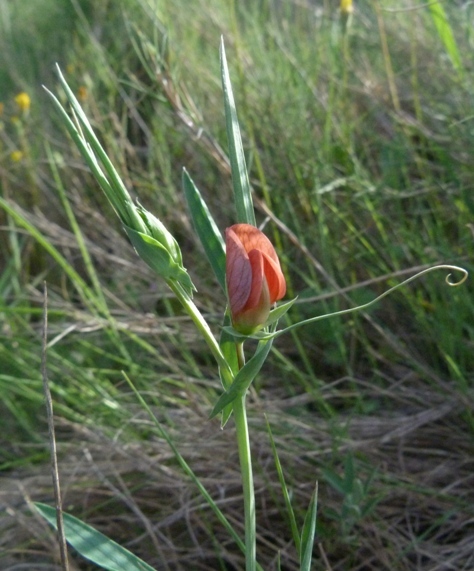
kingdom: Plantae
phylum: Tracheophyta
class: Magnoliopsida
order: Fabales
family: Fabaceae
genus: Lathyrus
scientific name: Lathyrus cicera
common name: Red vetchling
